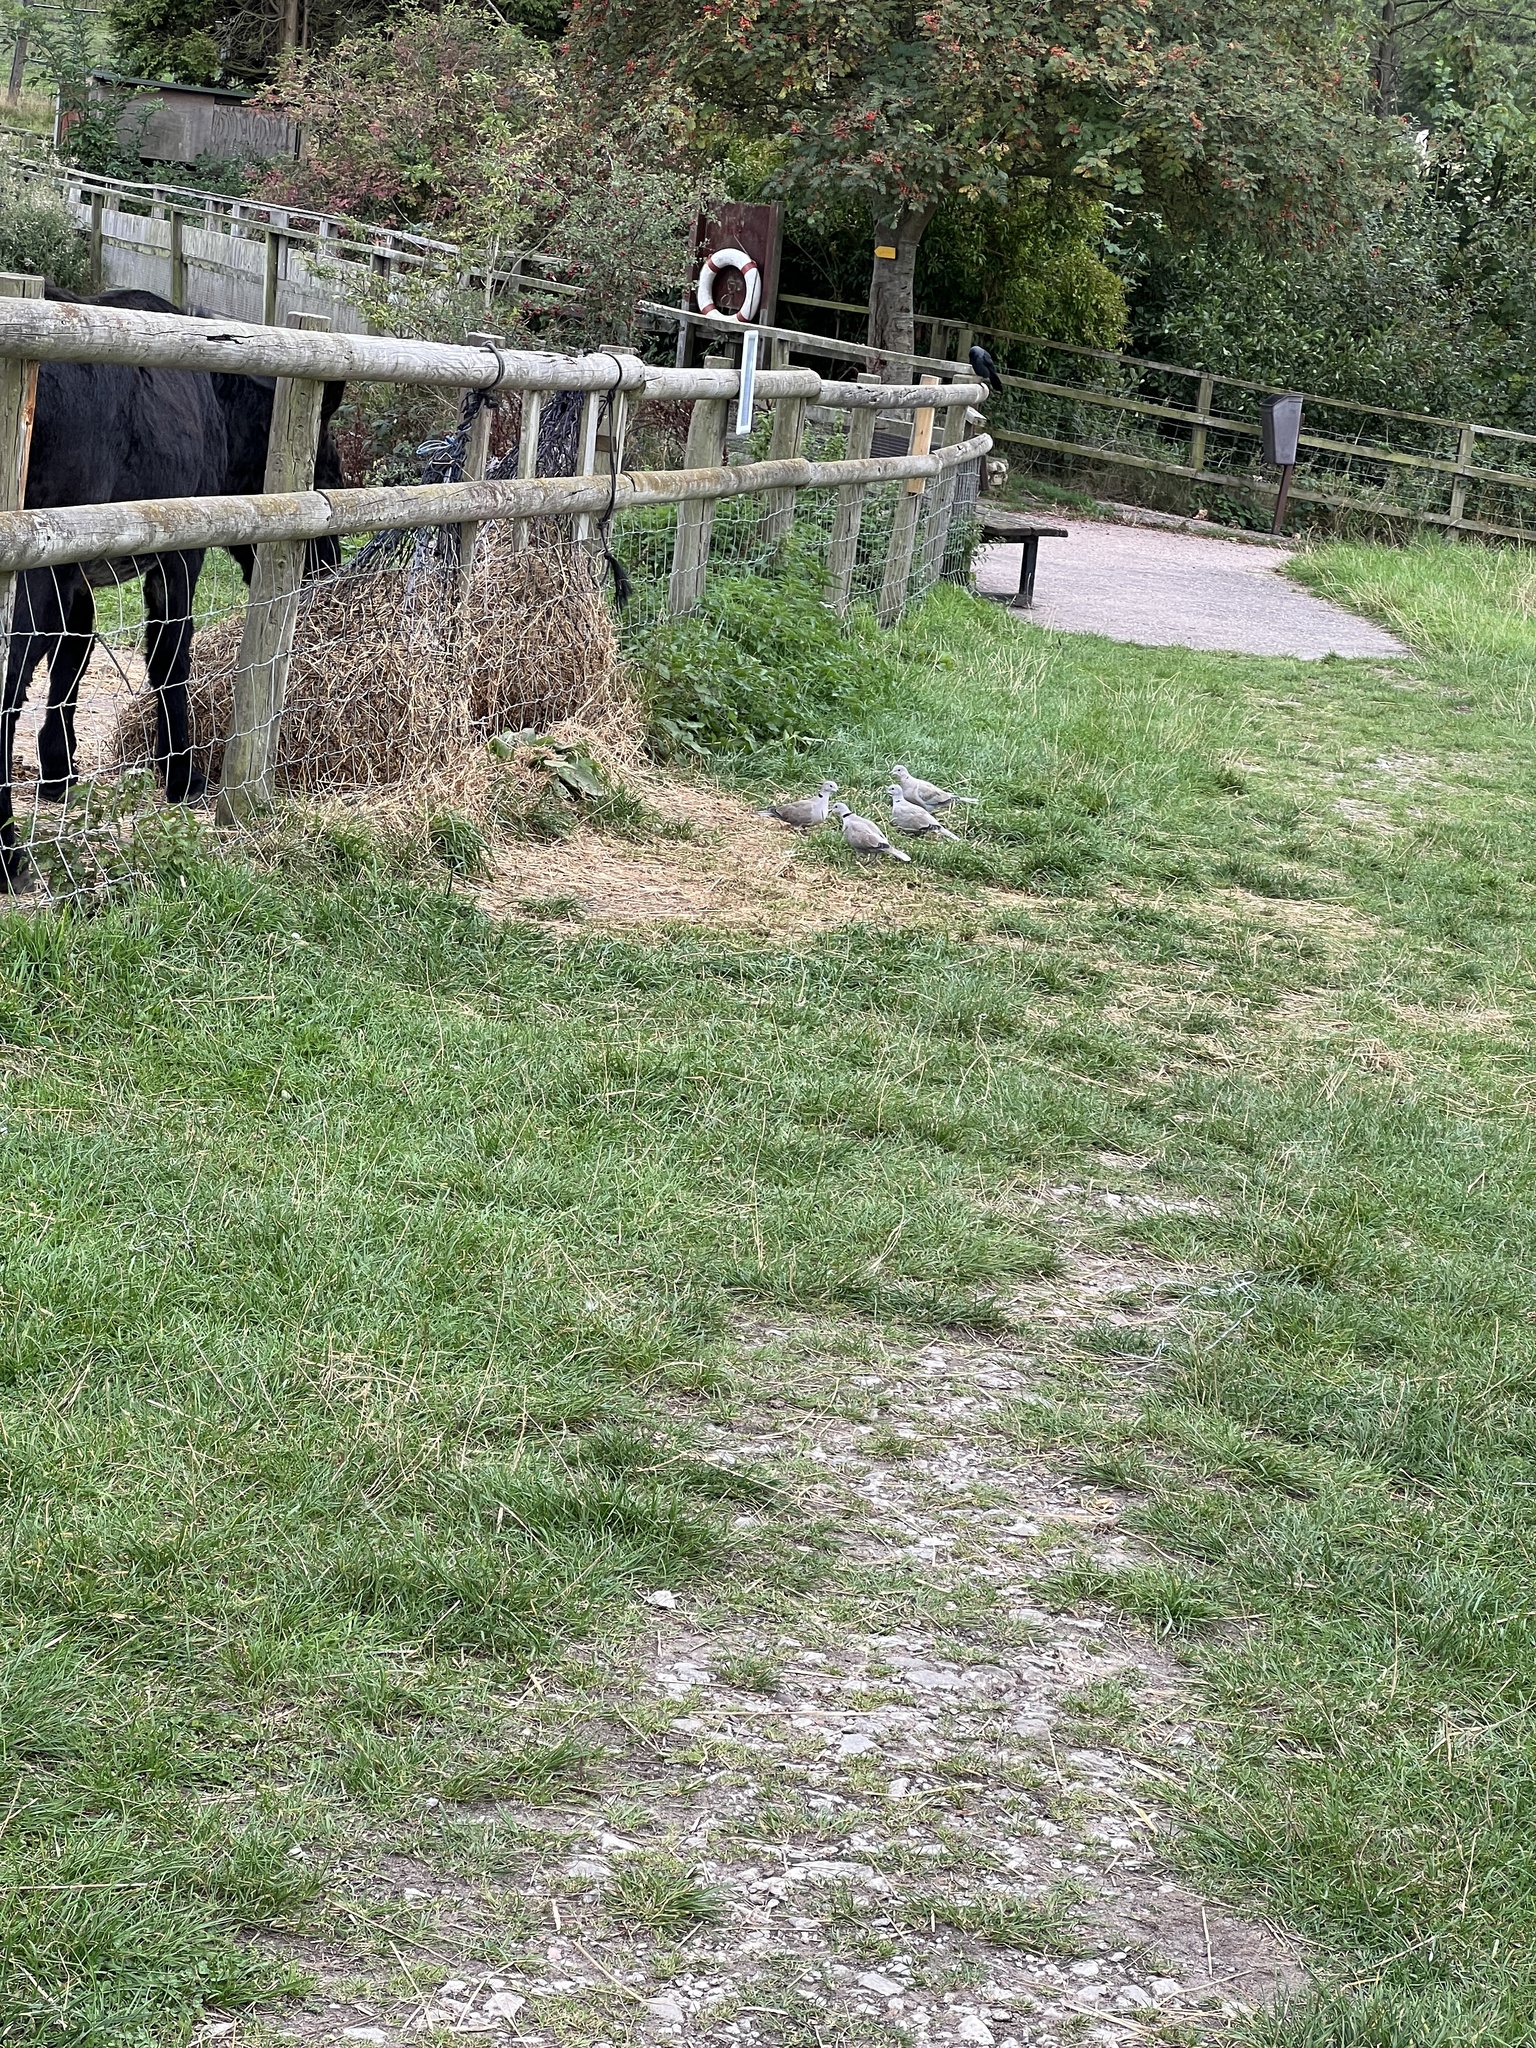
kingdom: Animalia
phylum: Chordata
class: Aves
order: Columbiformes
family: Columbidae
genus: Streptopelia
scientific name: Streptopelia decaocto
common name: Eurasian collared dove
